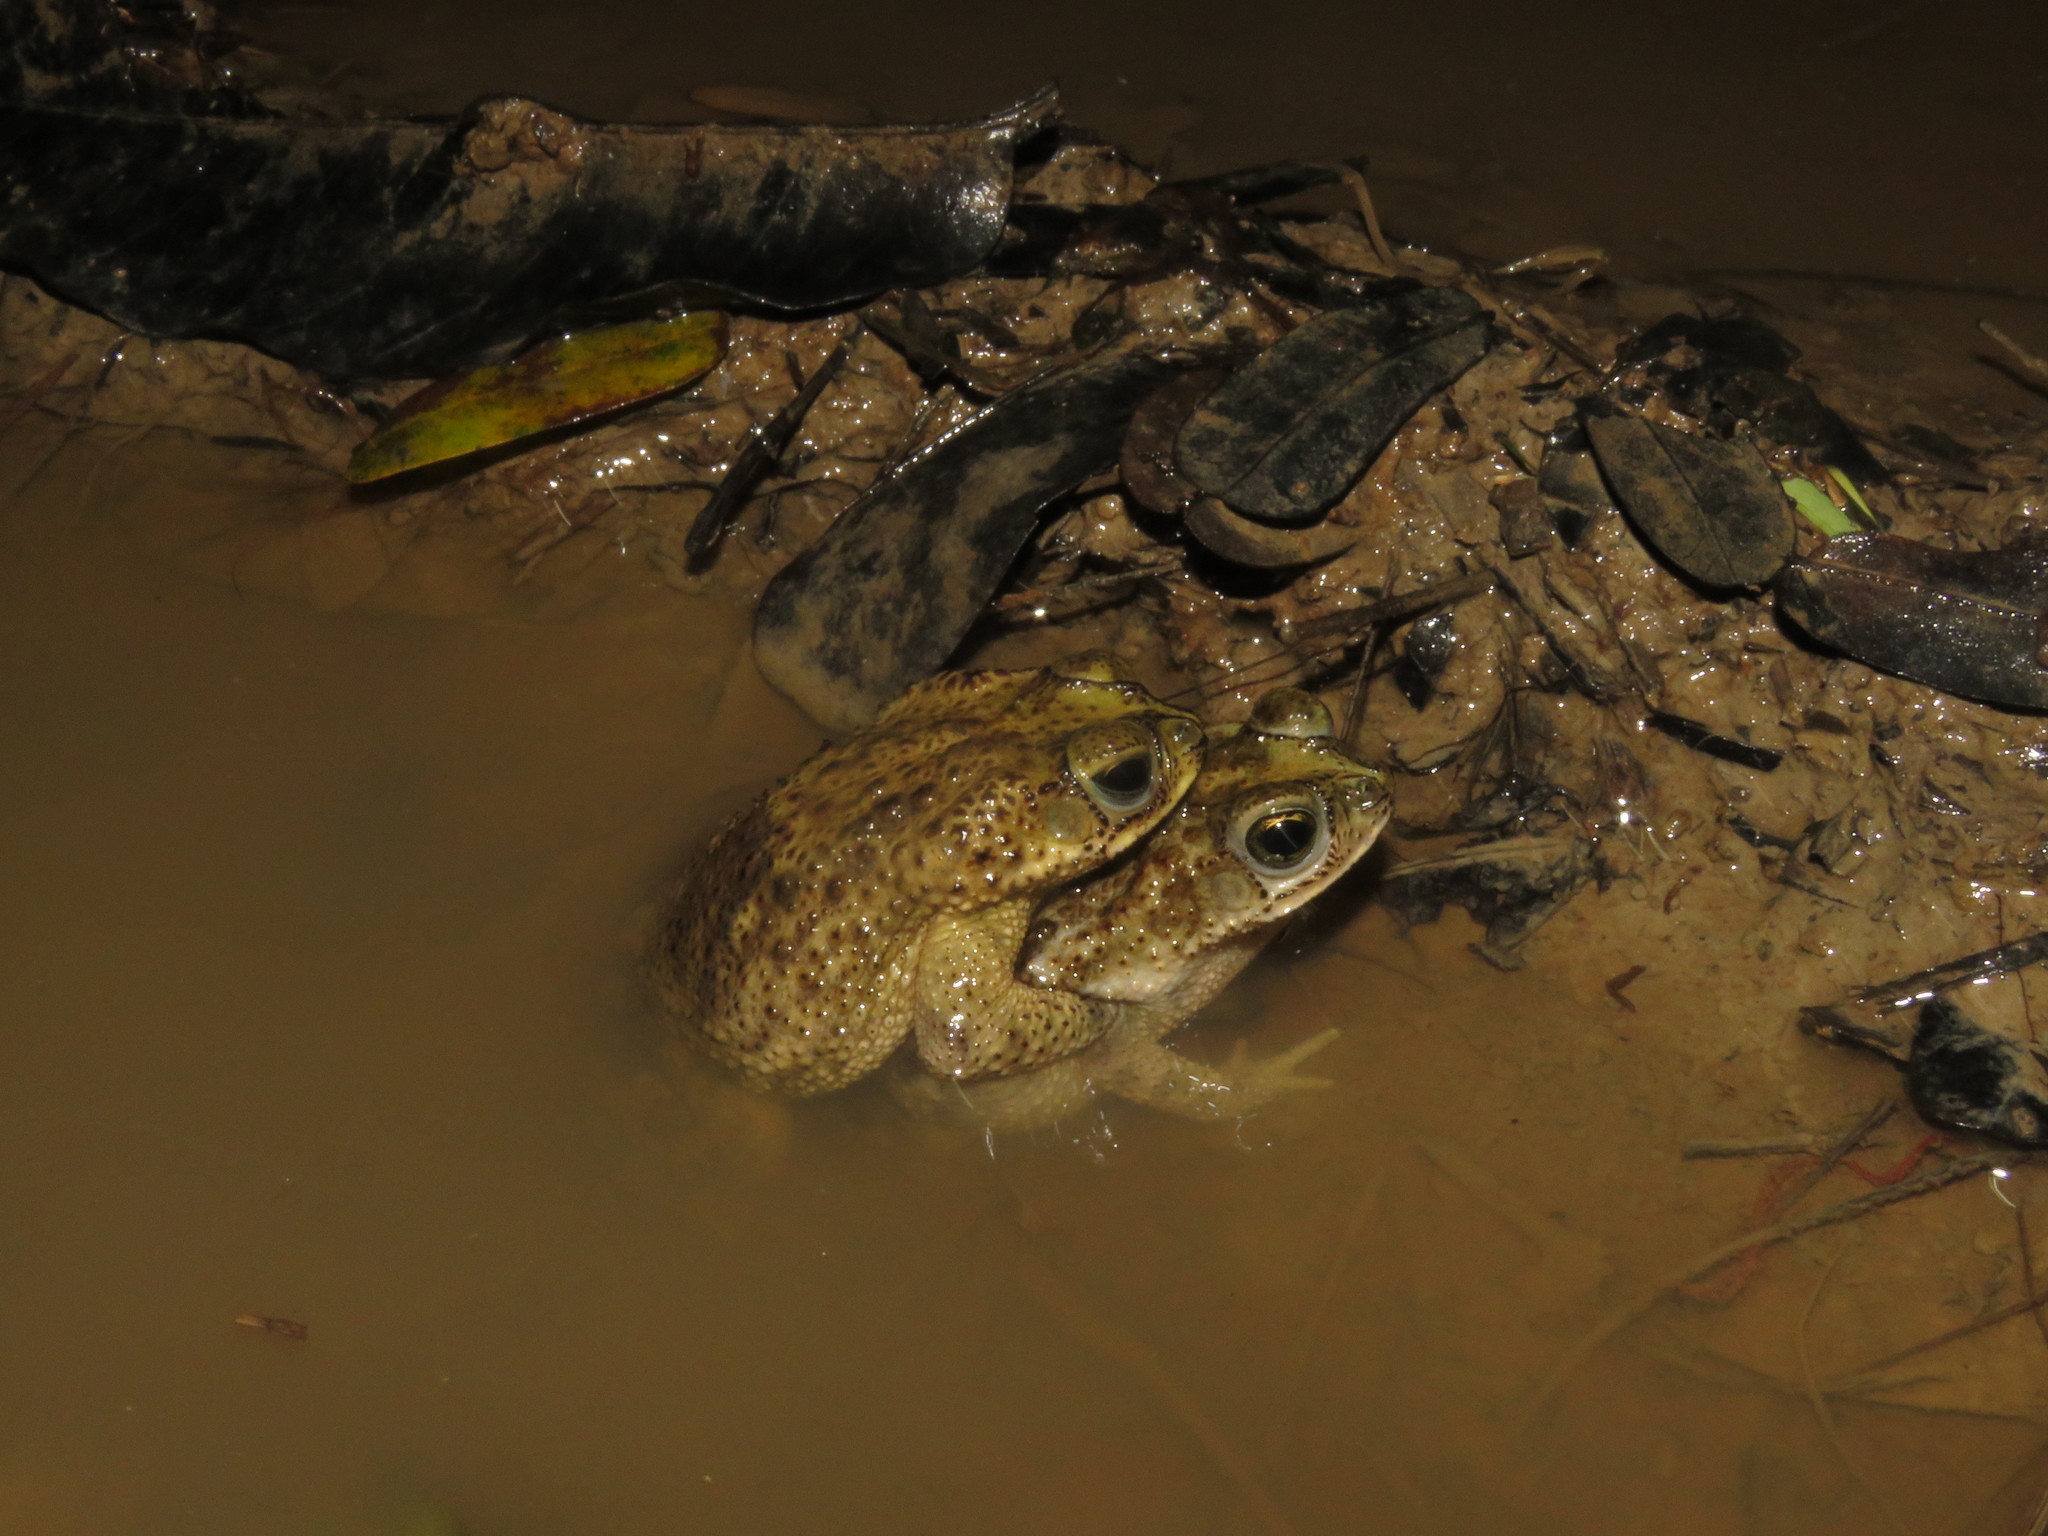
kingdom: Animalia
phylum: Chordata
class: Amphibia
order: Anura
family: Bufonidae
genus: Rhinella
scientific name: Rhinella major
